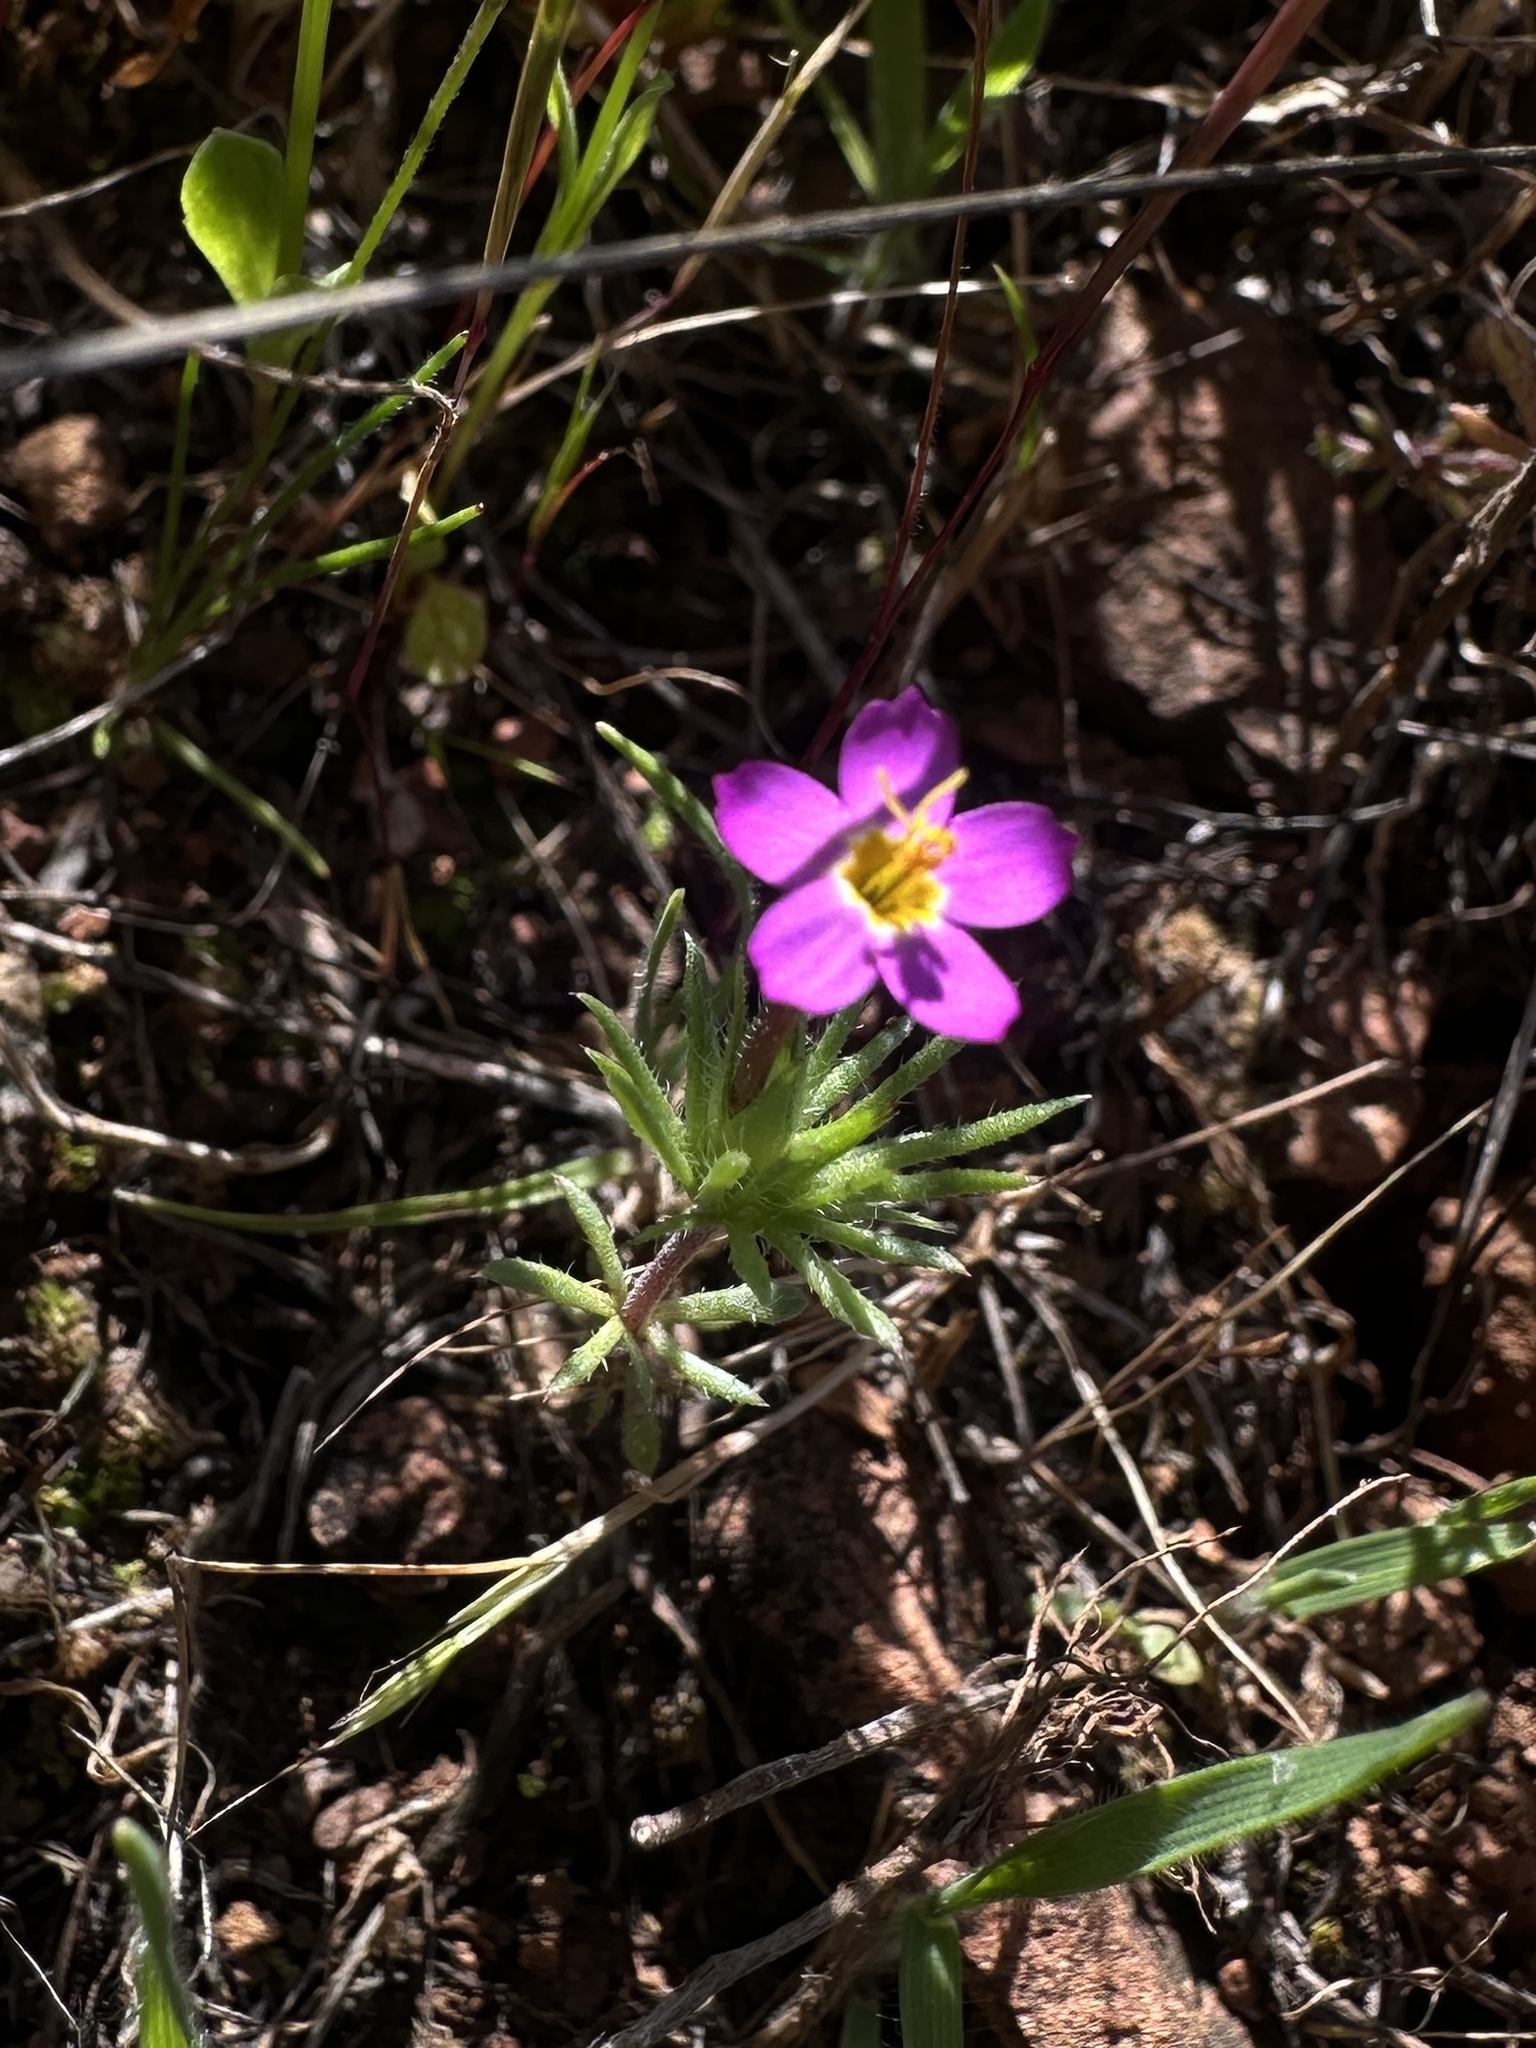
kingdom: Plantae
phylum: Tracheophyta
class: Magnoliopsida
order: Ericales
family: Polemoniaceae
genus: Leptosiphon
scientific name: Leptosiphon bicolor
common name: True babystars
